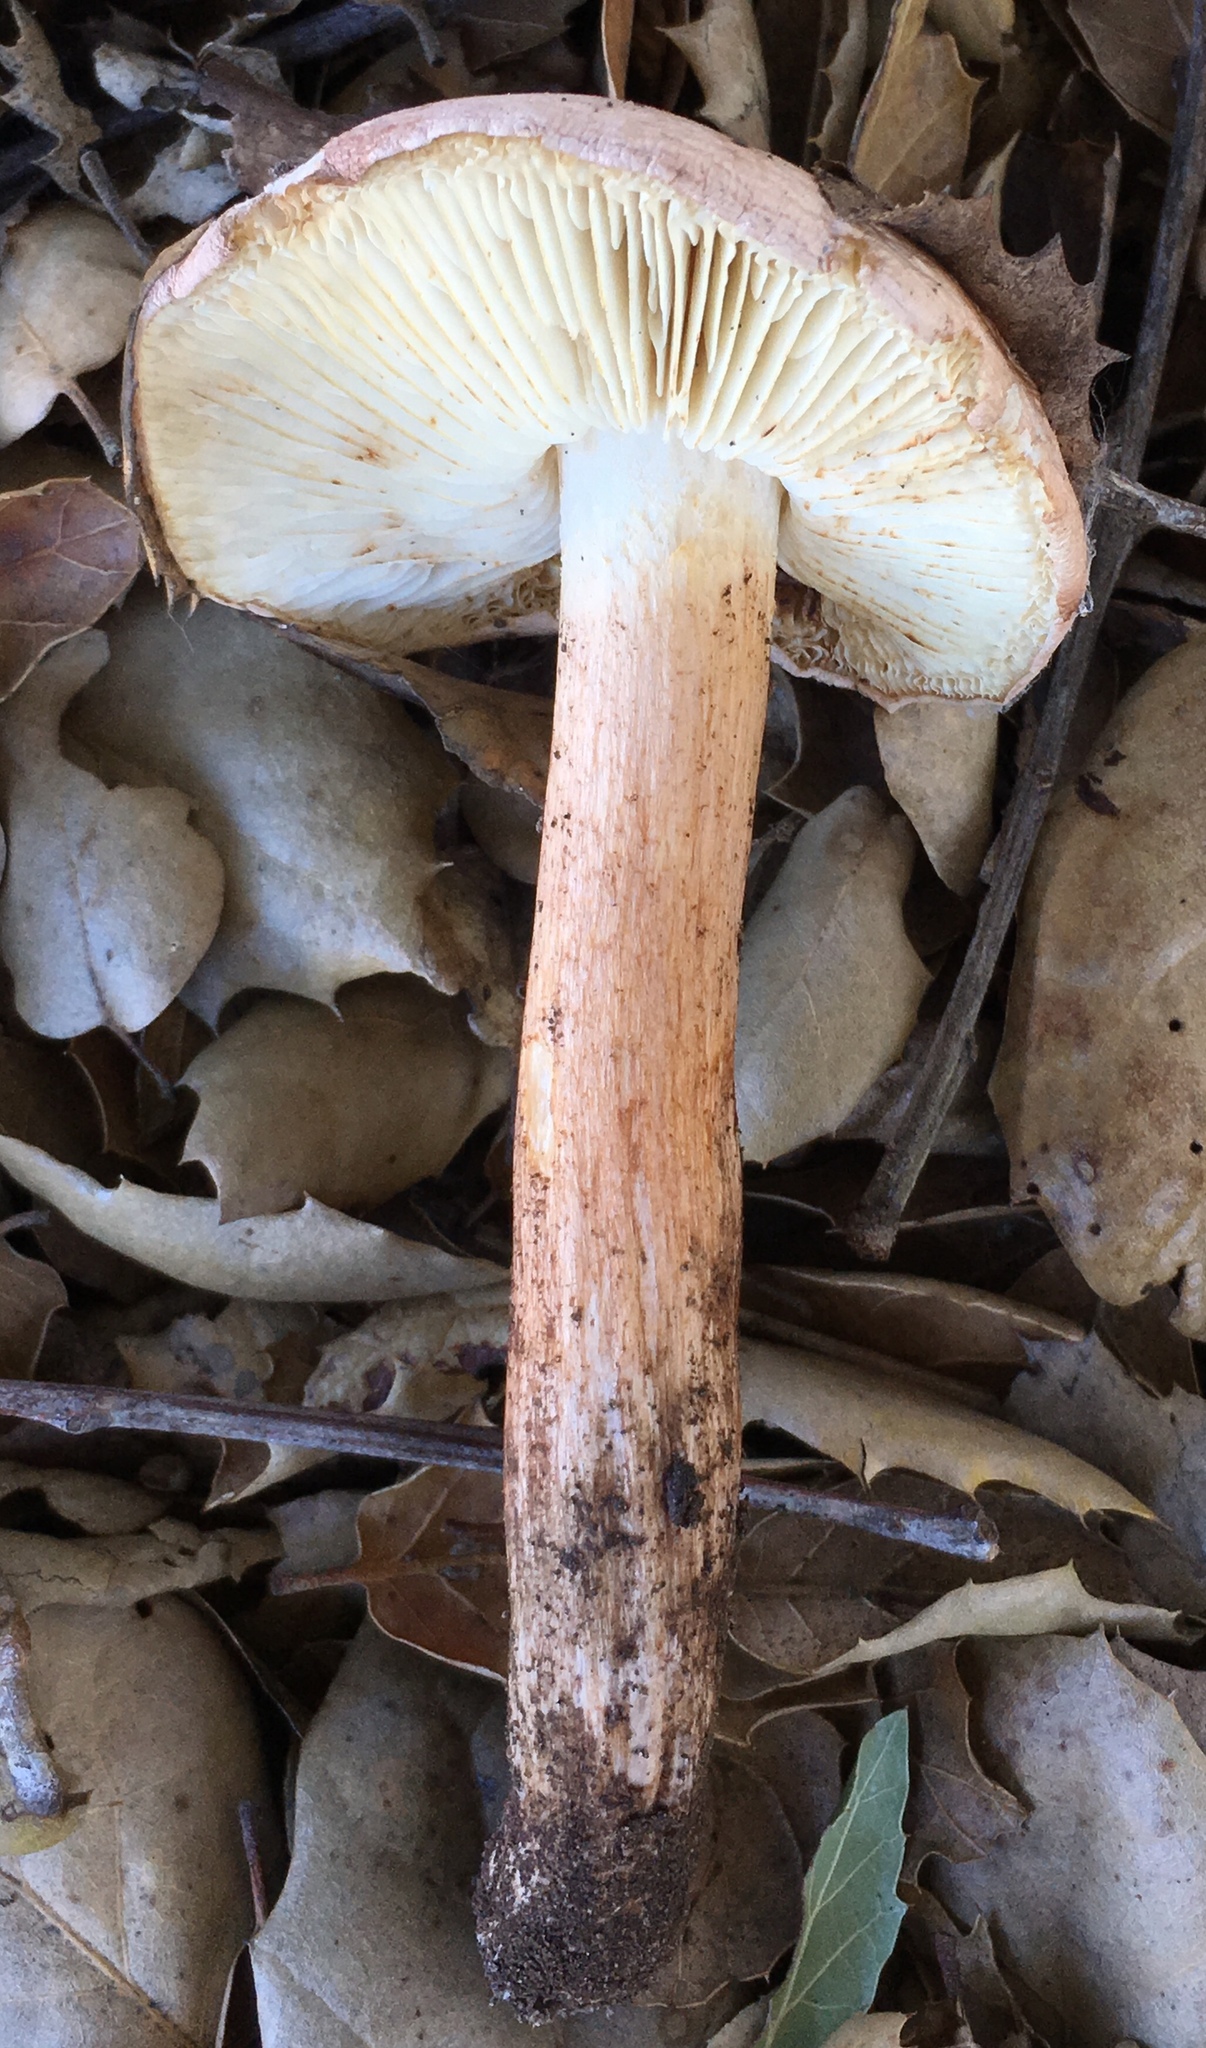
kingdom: Fungi
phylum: Basidiomycota
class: Agaricomycetes
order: Agaricales
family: Tricholomataceae
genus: Melanoleuca
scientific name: Melanoleuca dryophila
